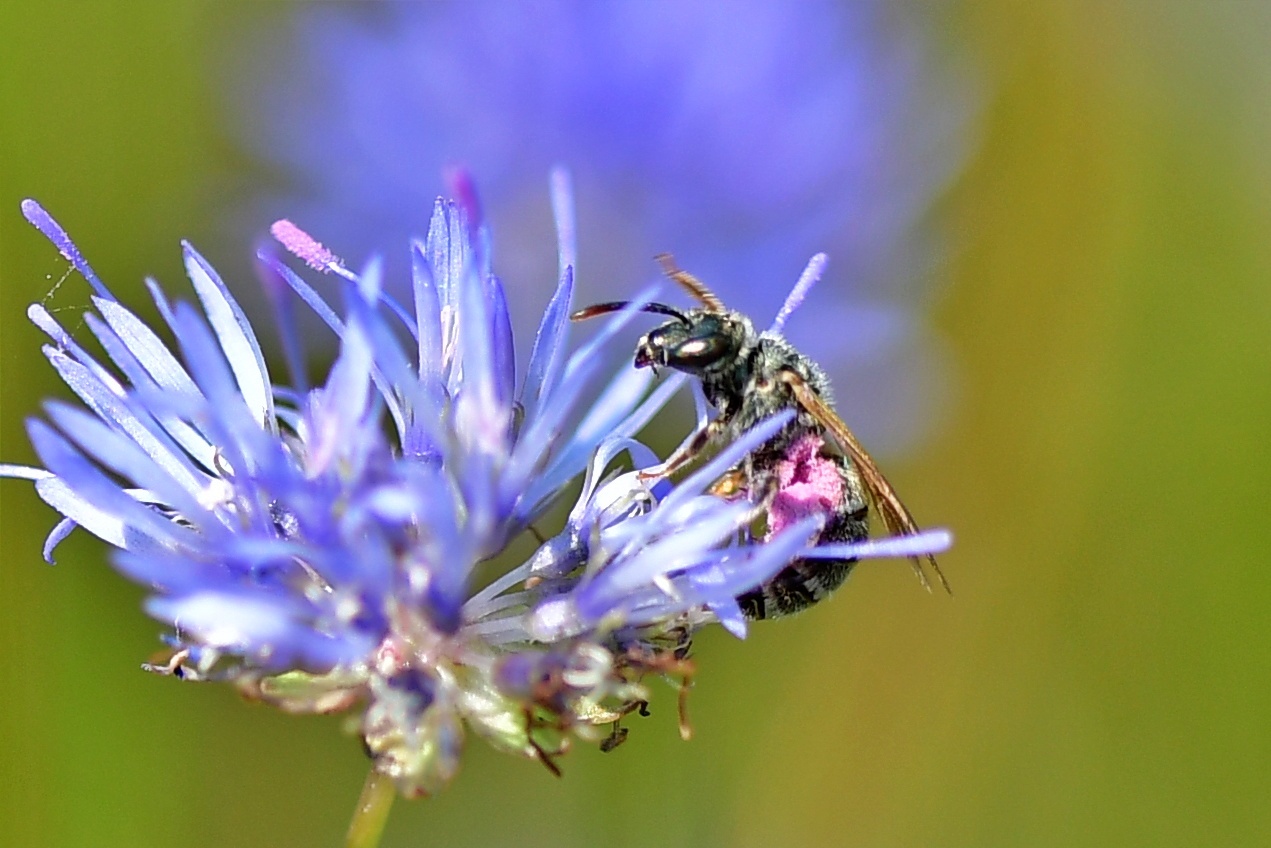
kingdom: Animalia
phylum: Arthropoda
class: Insecta
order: Hymenoptera
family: Halictidae
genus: Halictus
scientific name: Halictus leucaheneus
